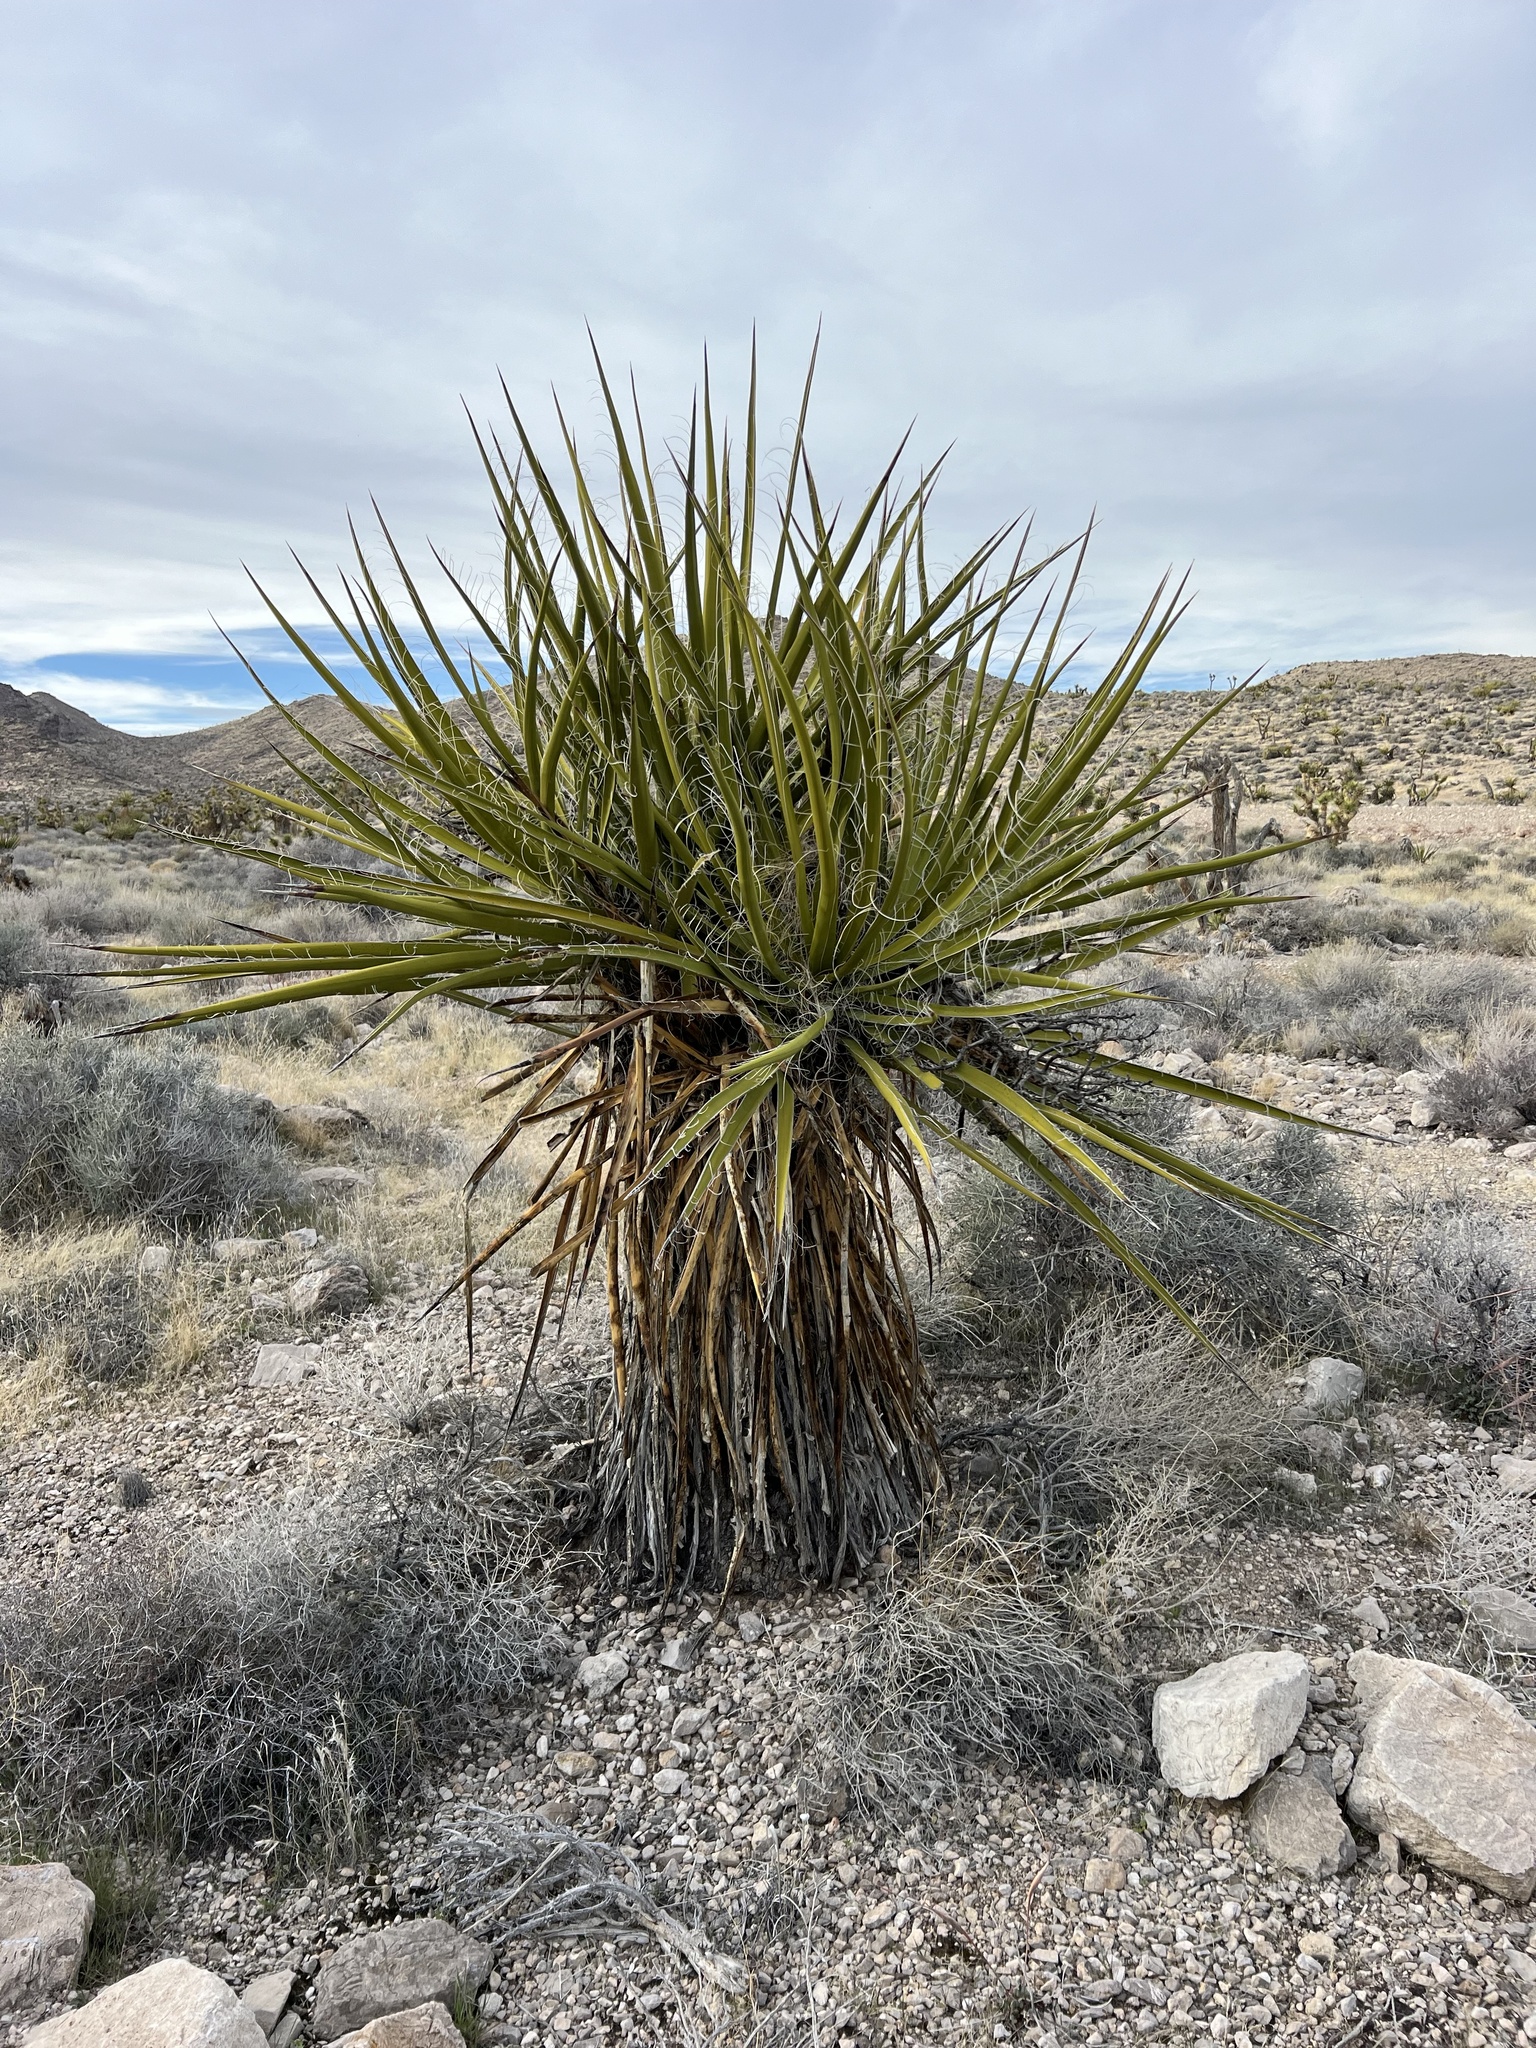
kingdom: Plantae
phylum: Tracheophyta
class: Liliopsida
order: Asparagales
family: Asparagaceae
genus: Yucca
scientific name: Yucca schidigera
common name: Mojave yucca
